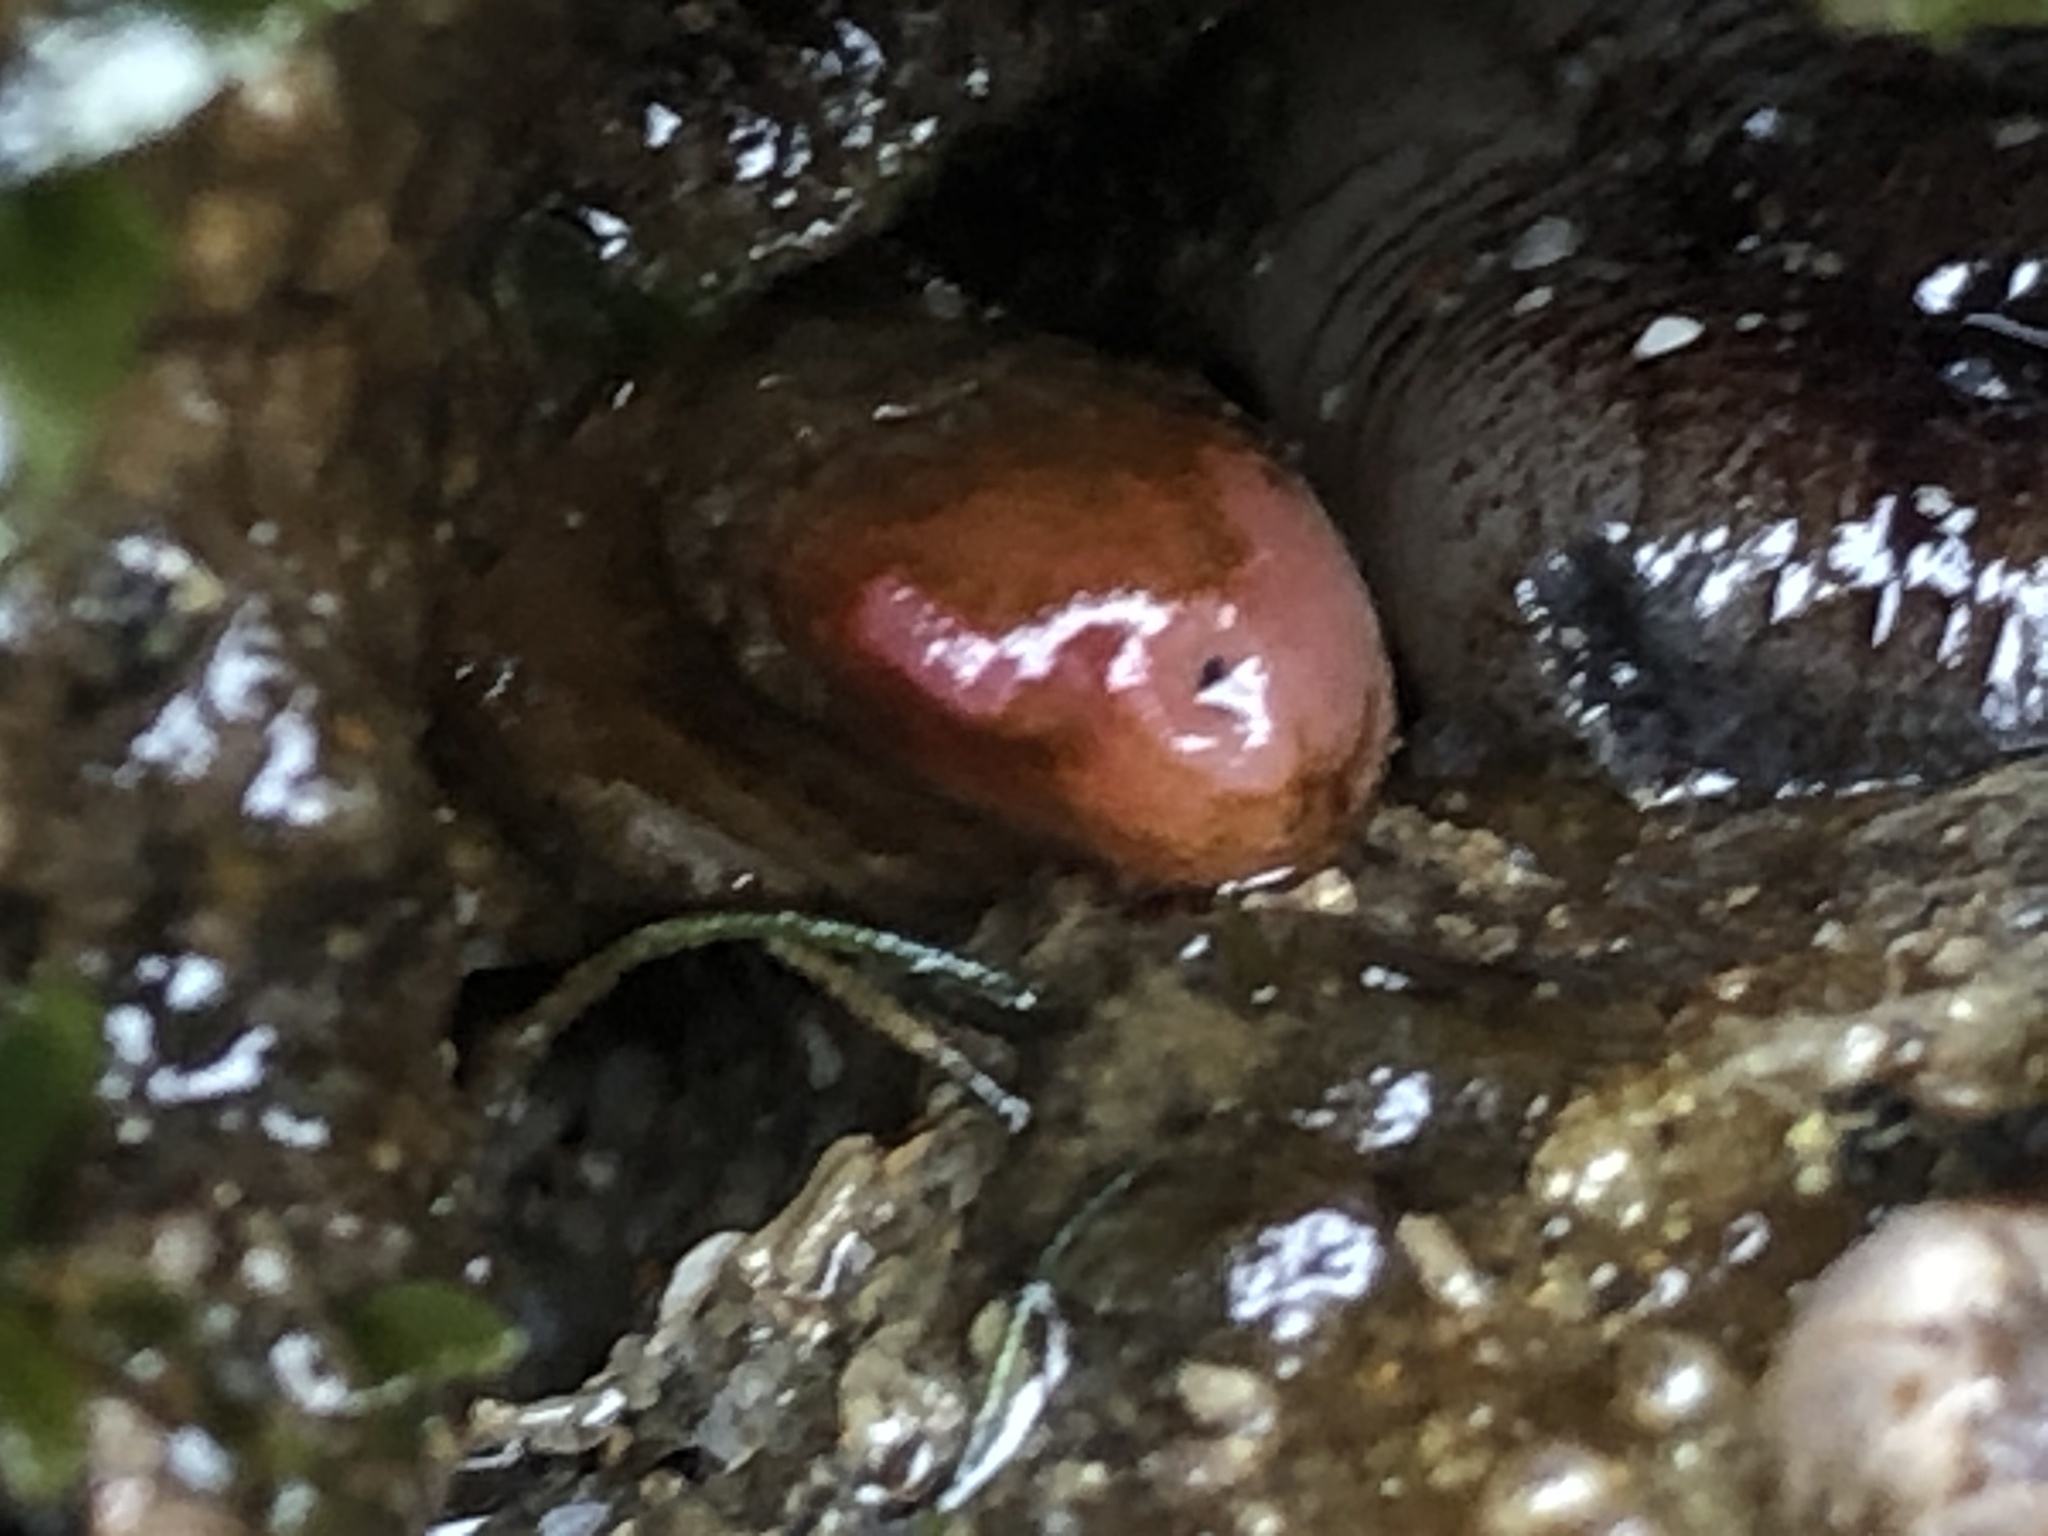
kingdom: Animalia
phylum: Mollusca
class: Bivalvia
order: Adapedonta
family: Hiatellidae
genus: Hiatella
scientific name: Hiatella arctica
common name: Arctic hiatella
